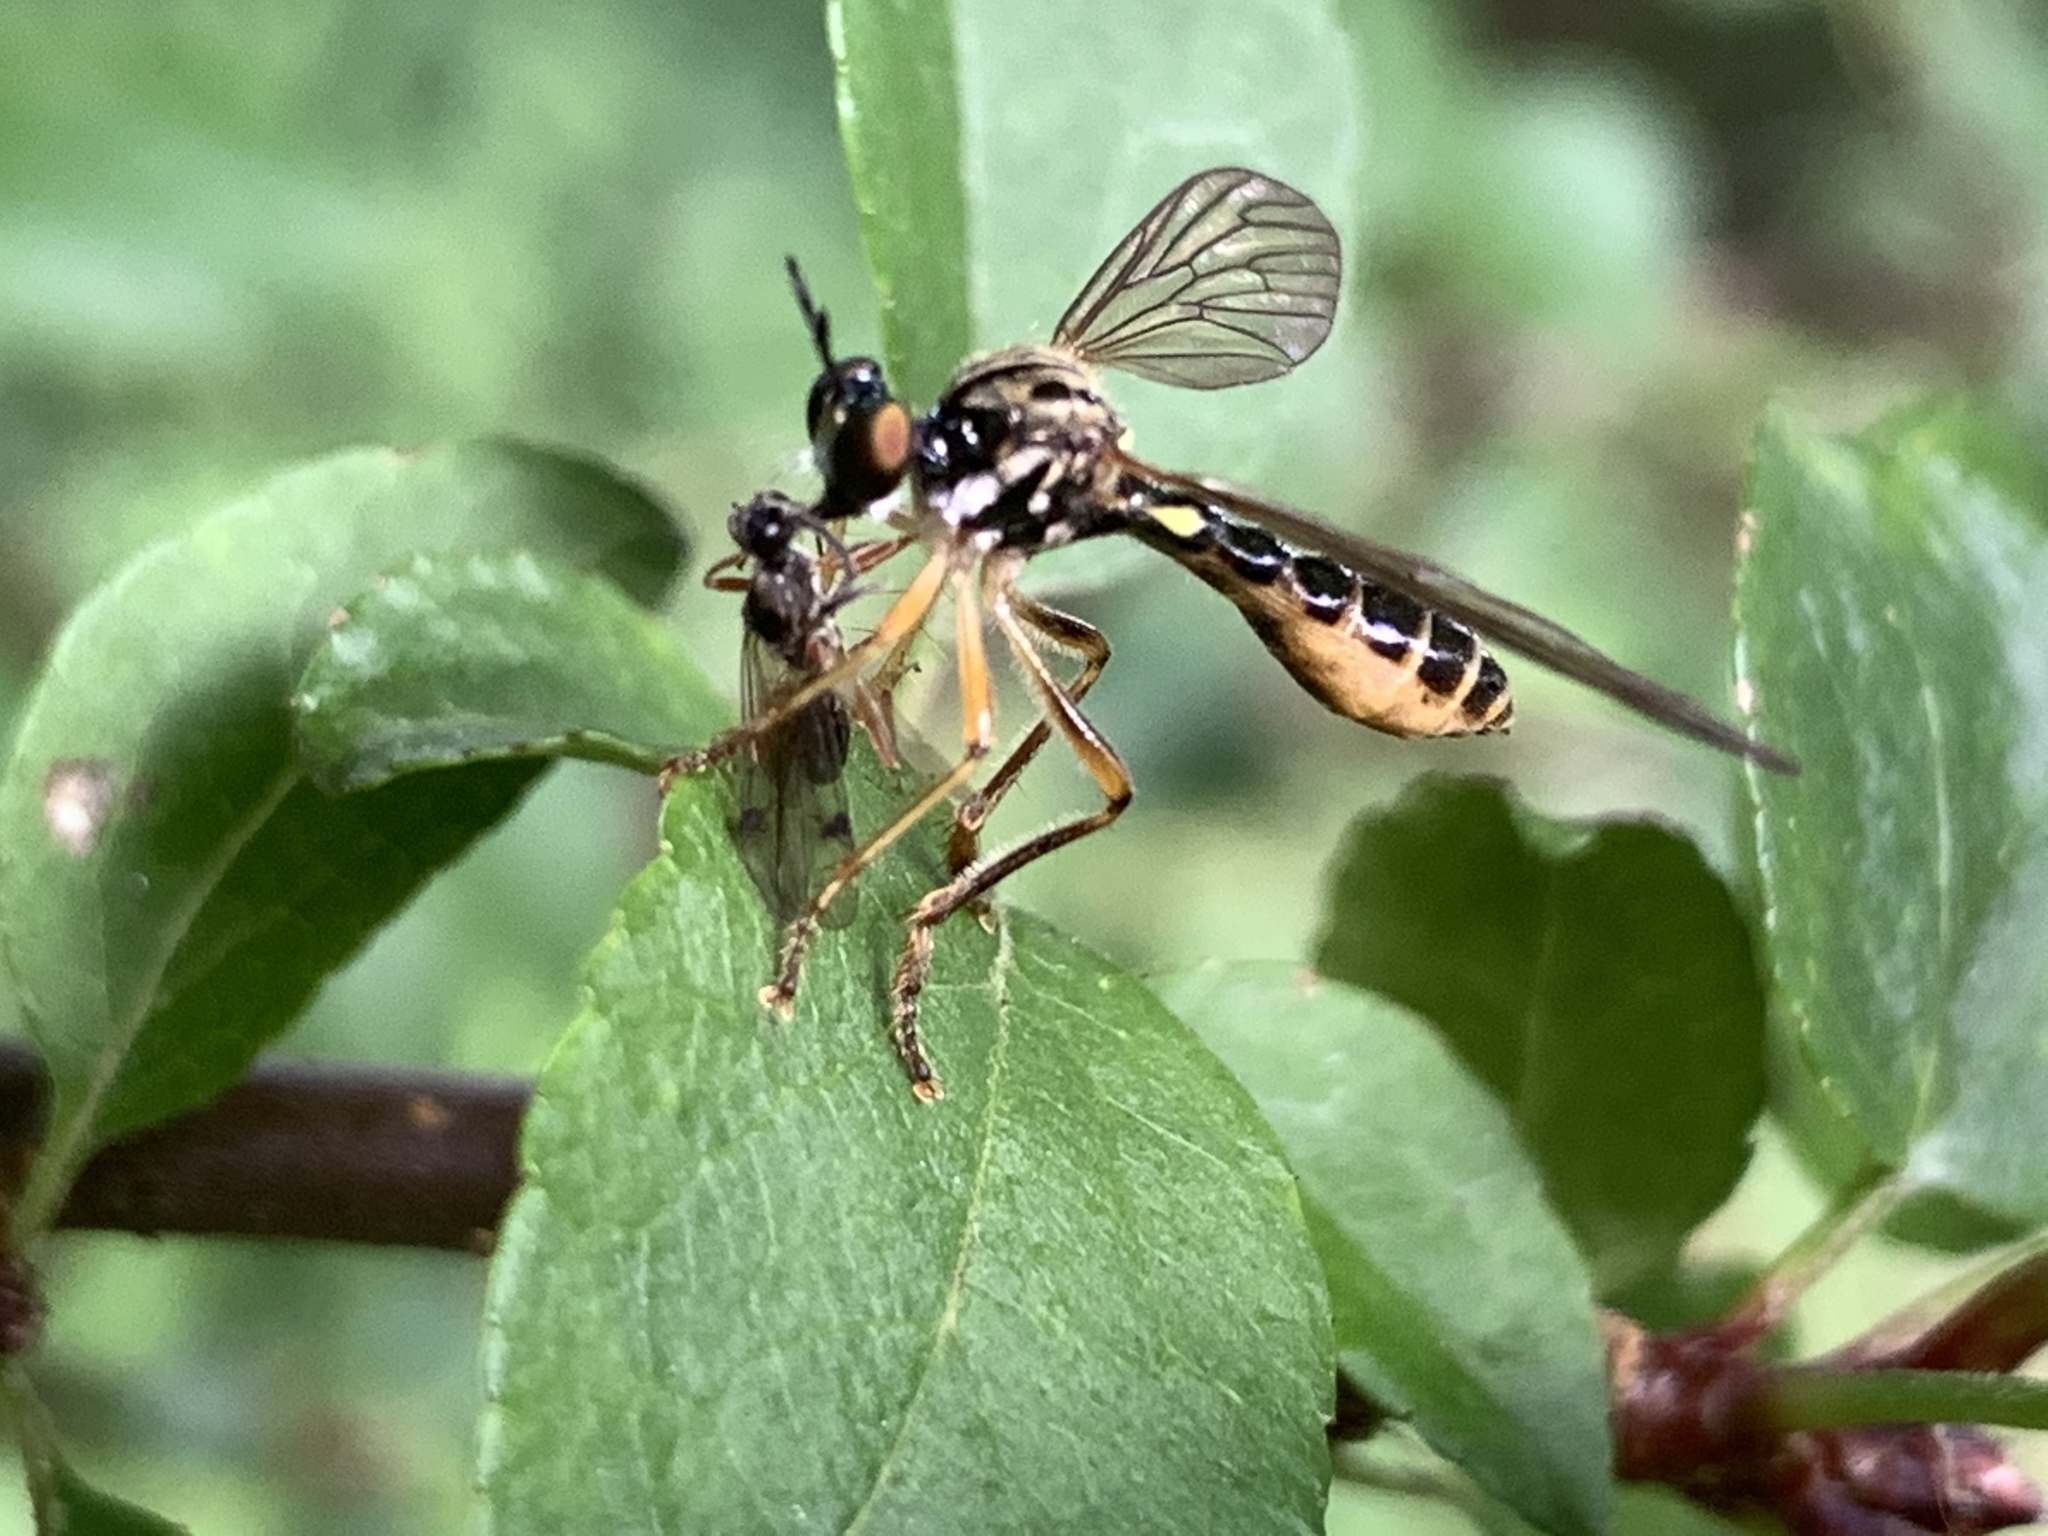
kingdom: Animalia
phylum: Arthropoda
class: Insecta
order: Diptera
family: Asilidae
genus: Dioctria
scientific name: Dioctria linearis
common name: Small yellow-legged robberfly
